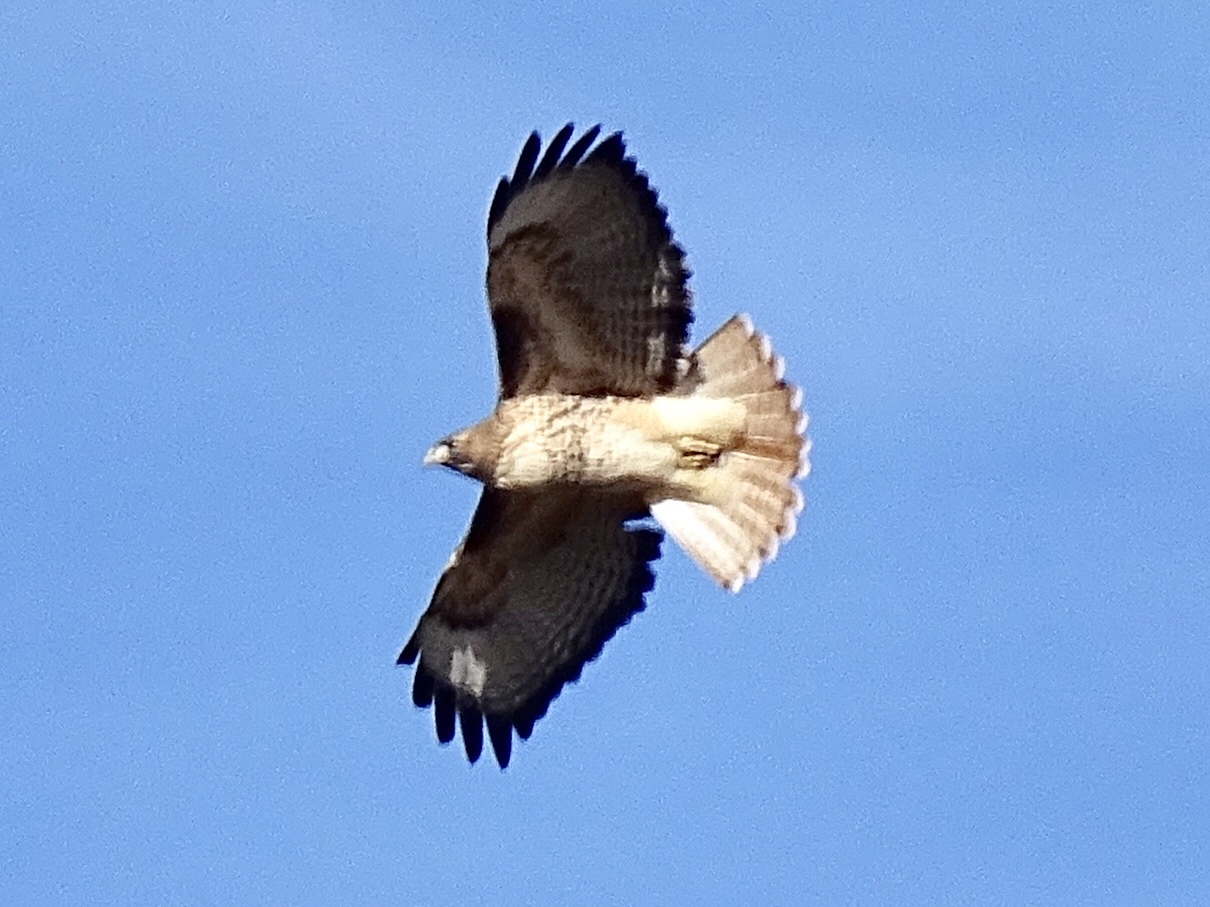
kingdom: Animalia
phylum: Chordata
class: Aves
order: Accipitriformes
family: Accipitridae
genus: Buteo
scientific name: Buteo jamaicensis
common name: Red-tailed hawk
